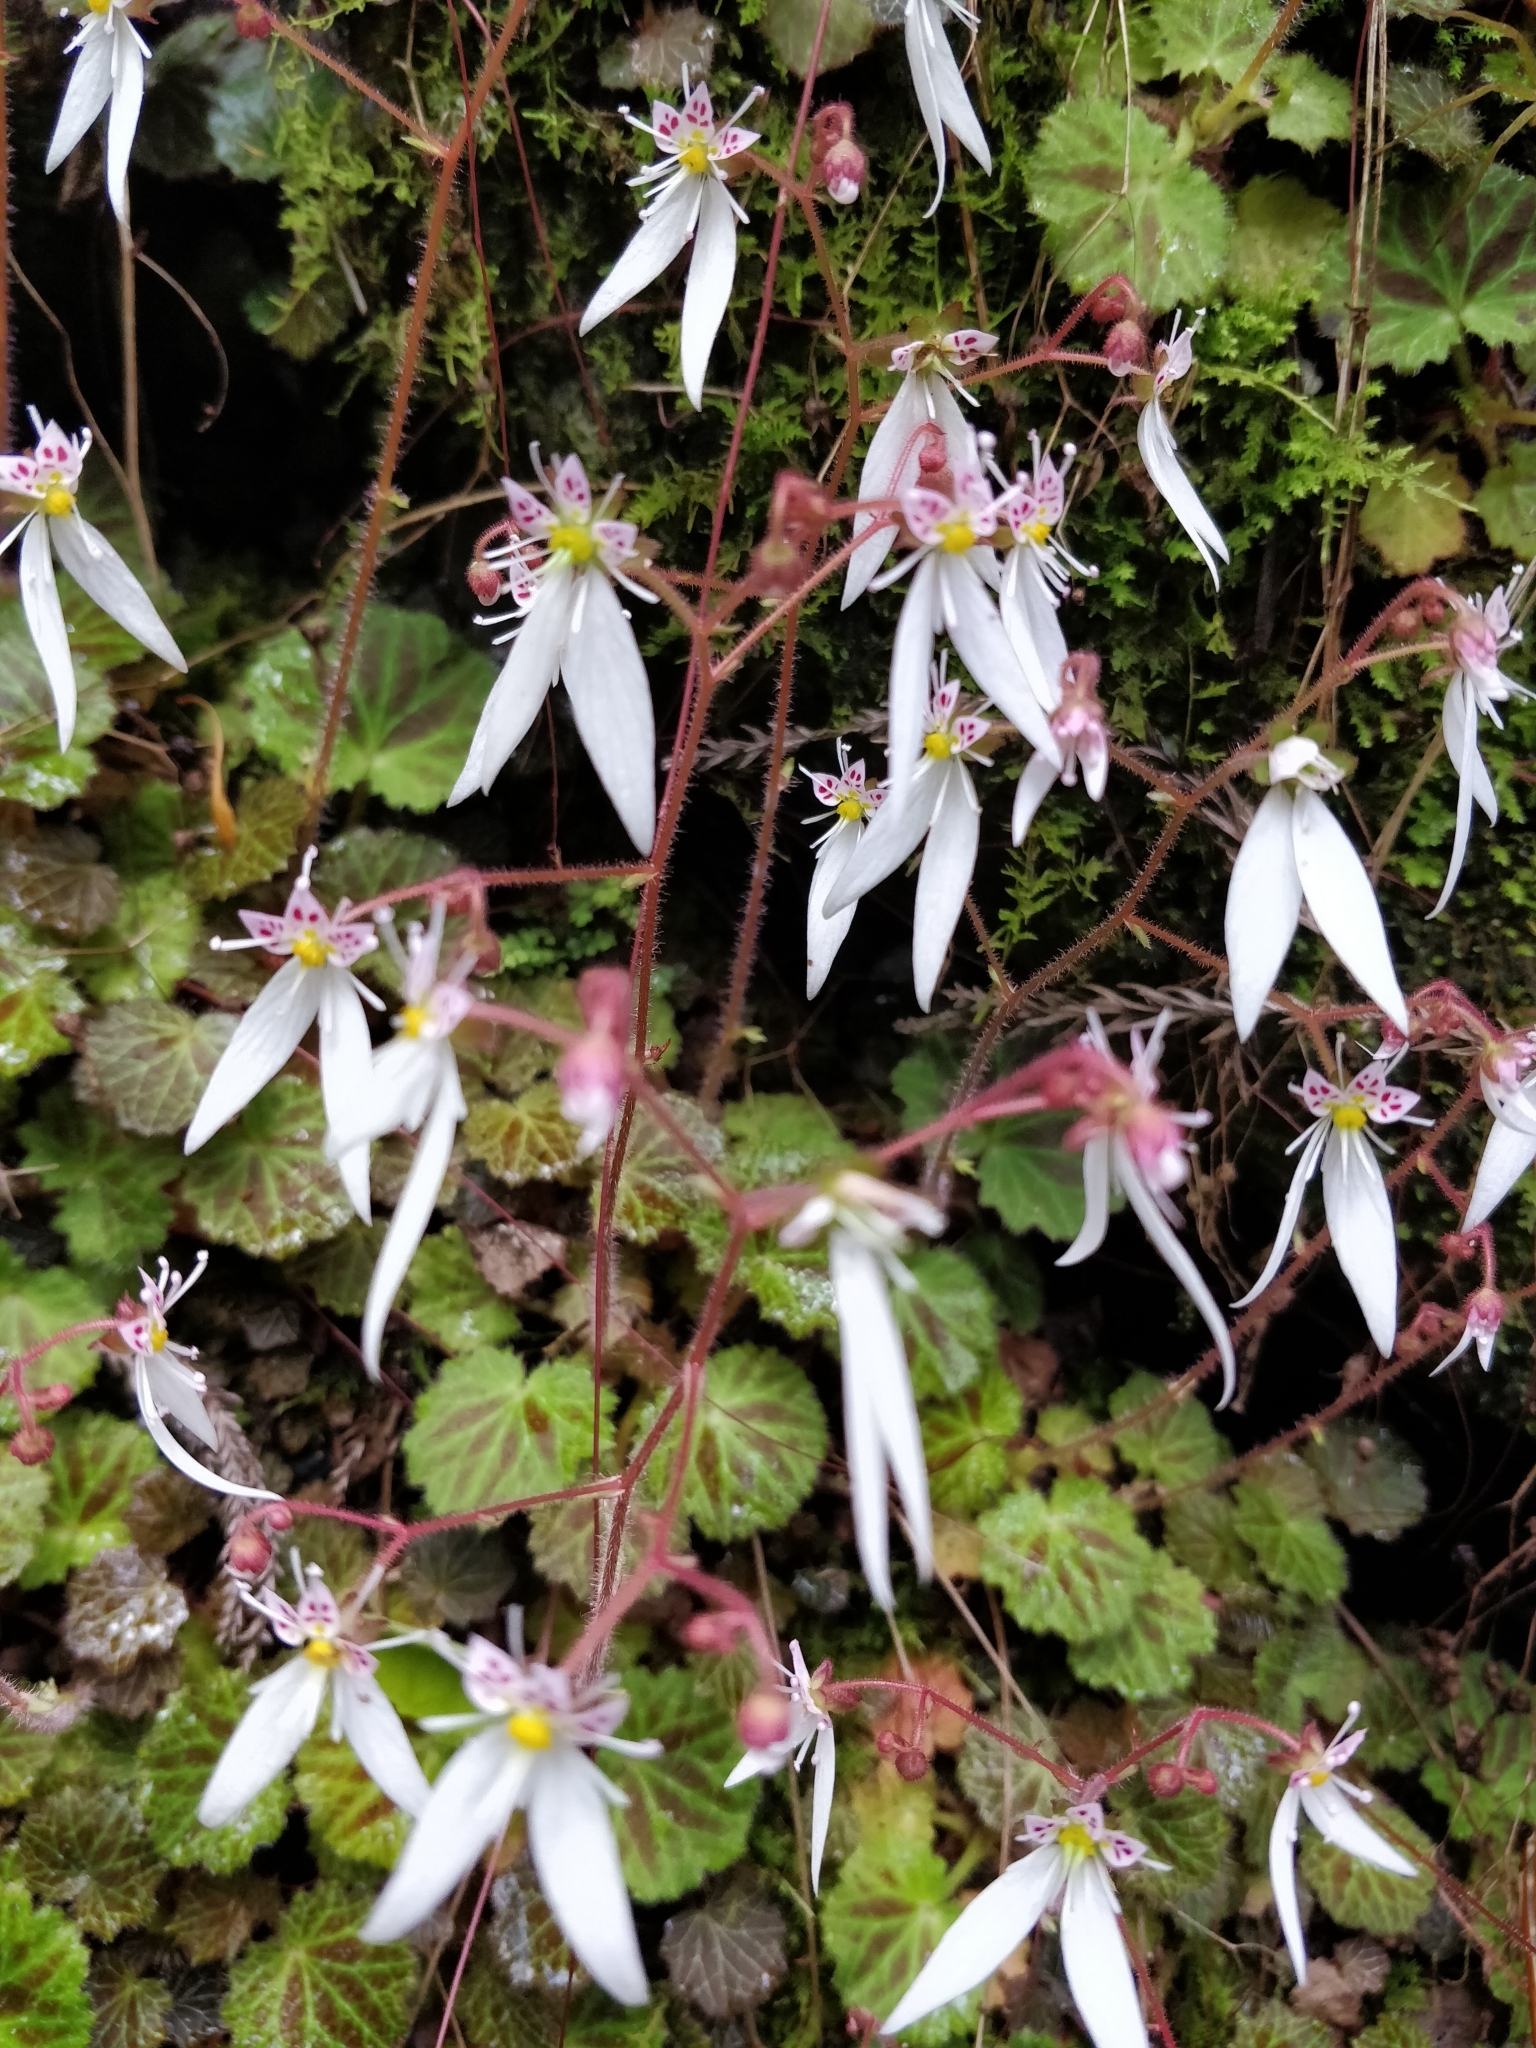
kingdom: Plantae
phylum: Tracheophyta
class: Magnoliopsida
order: Saxifragales
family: Saxifragaceae
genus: Saxifraga
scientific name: Saxifraga stolonifera
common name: Creeping saxifrage
